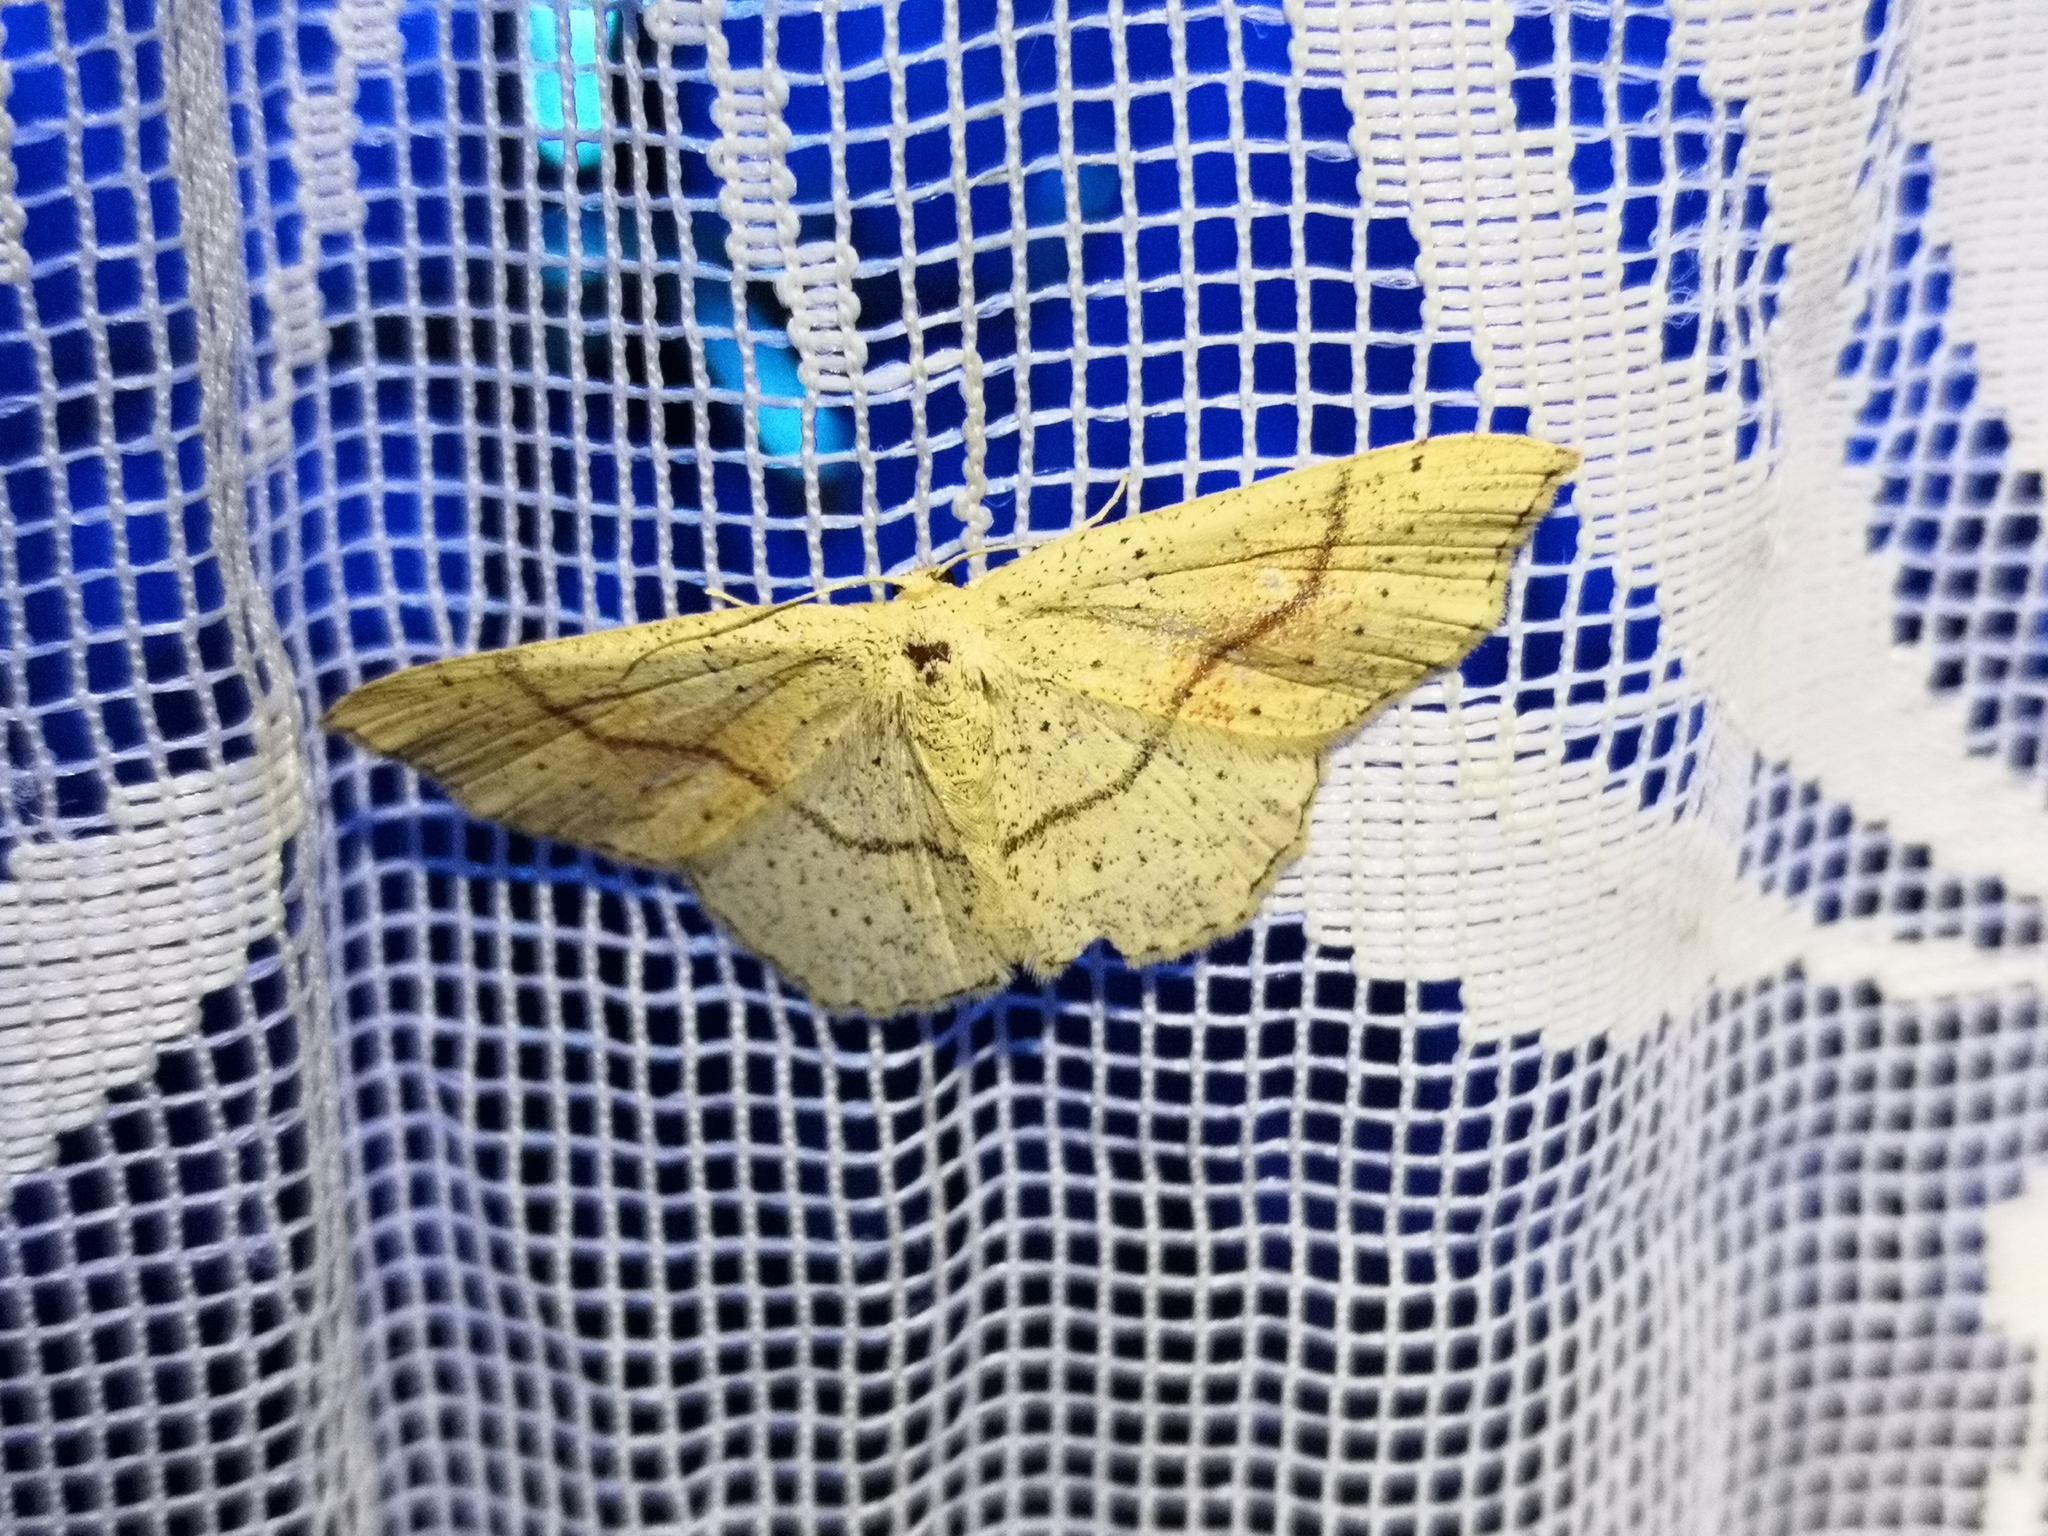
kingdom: Animalia
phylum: Arthropoda
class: Insecta
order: Lepidoptera
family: Geometridae
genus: Cyclophora
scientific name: Cyclophora punctaria
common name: Maiden's blush
